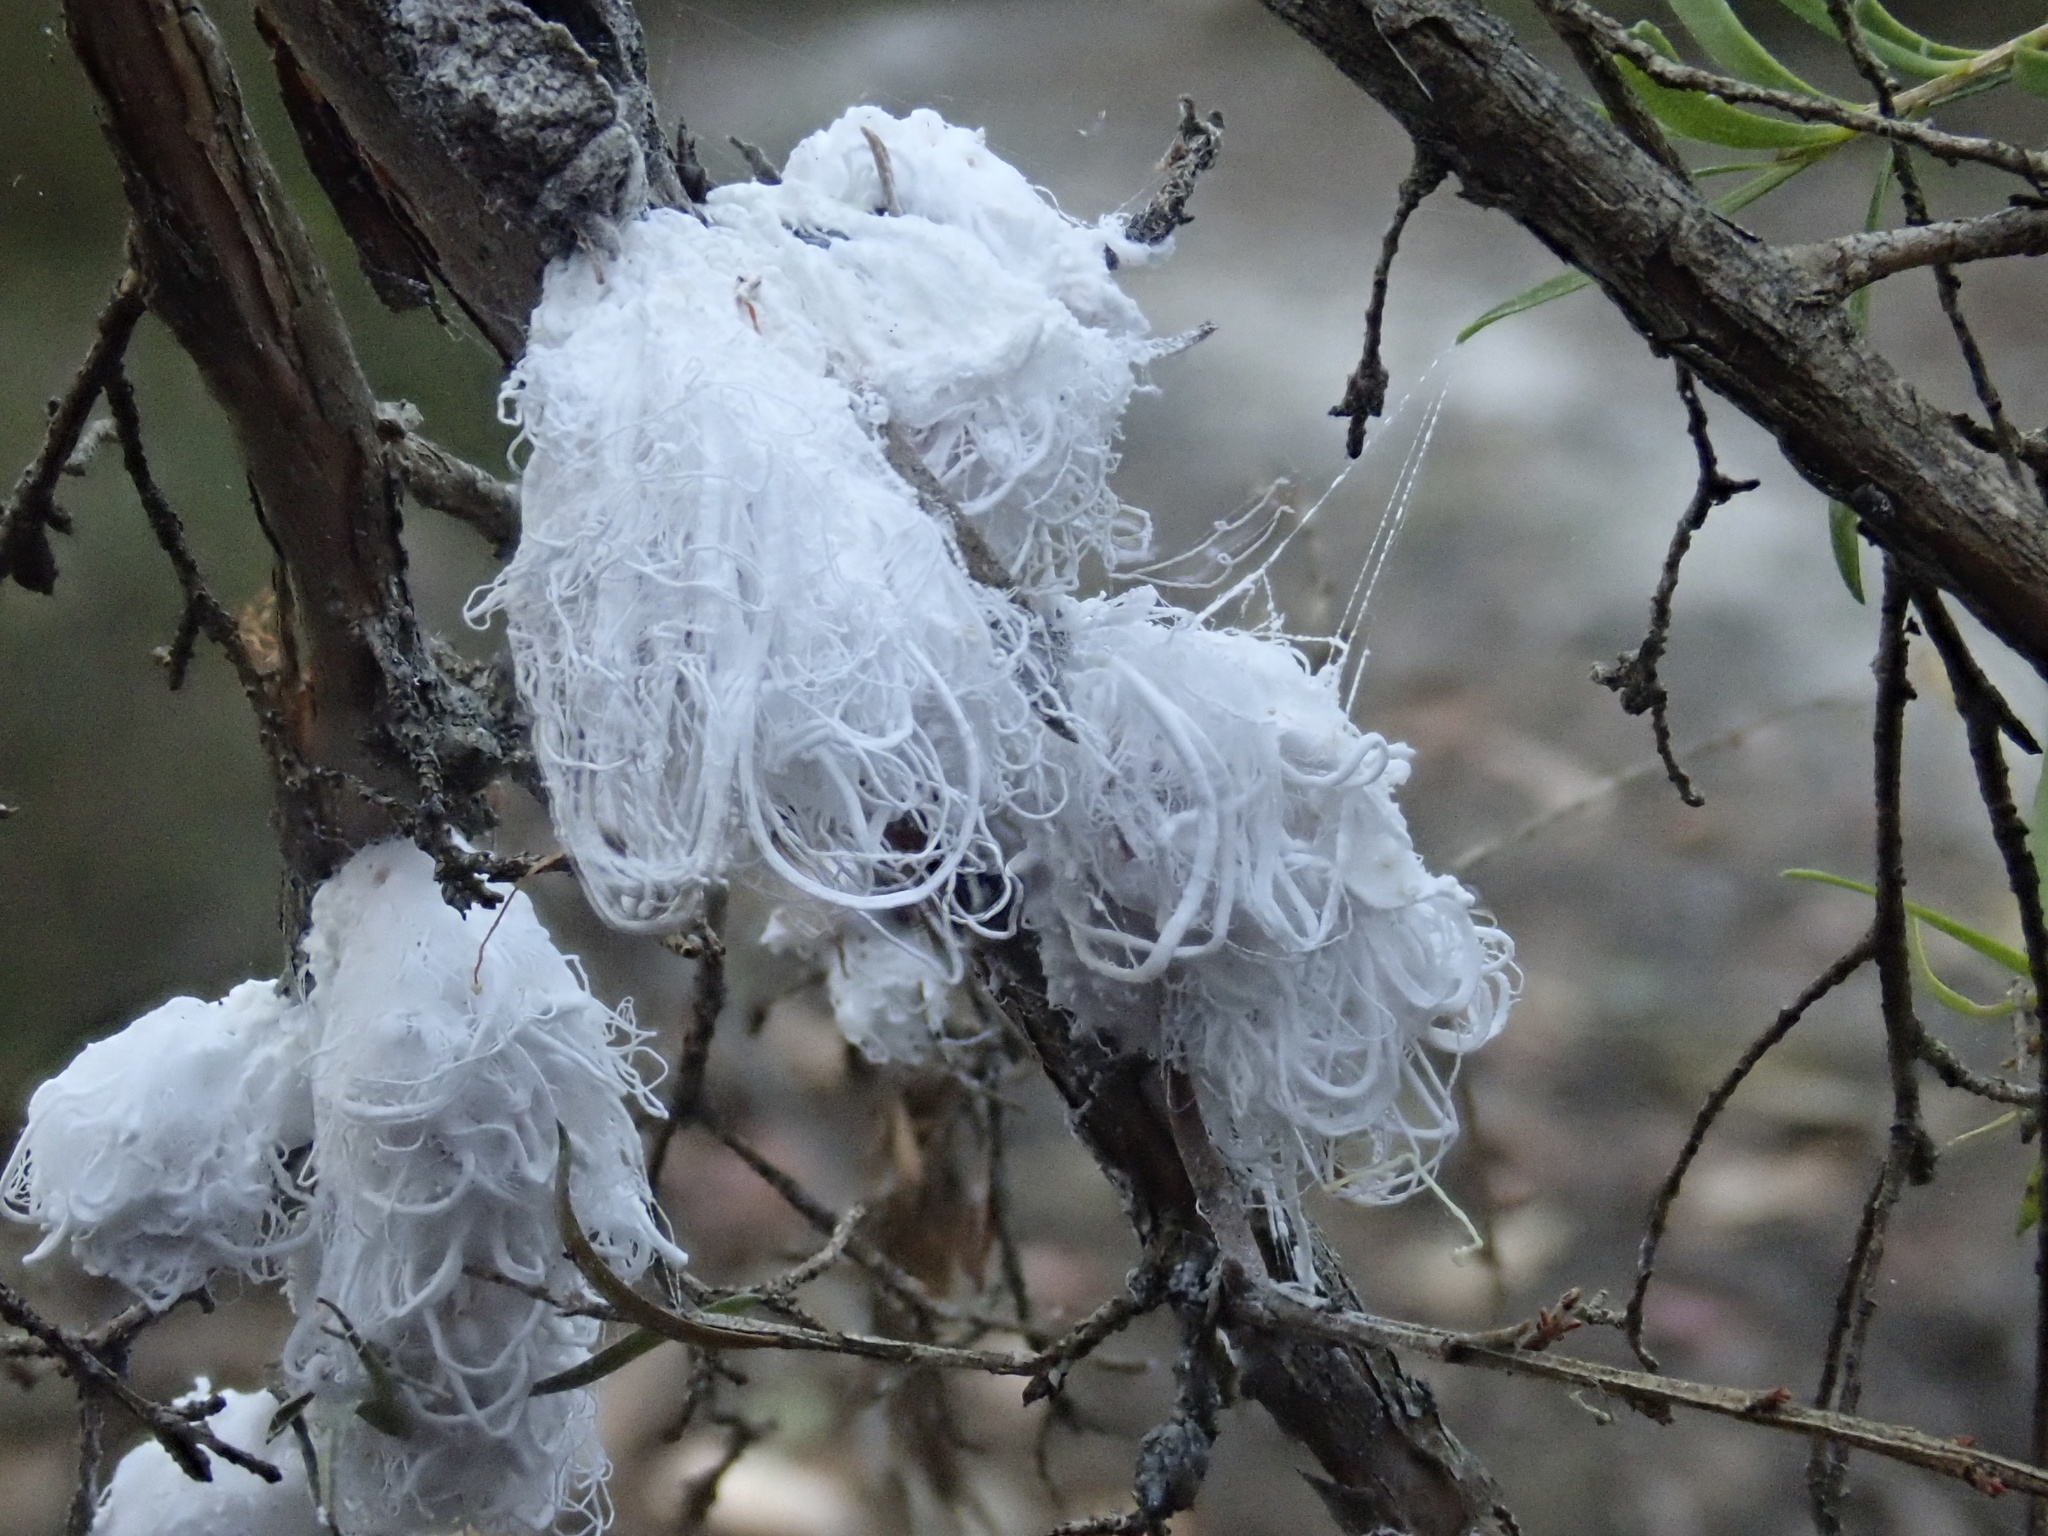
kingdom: Animalia
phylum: Arthropoda
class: Insecta
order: Hemiptera
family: Asterolecaniidae
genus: Callococcus
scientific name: Callococcus
